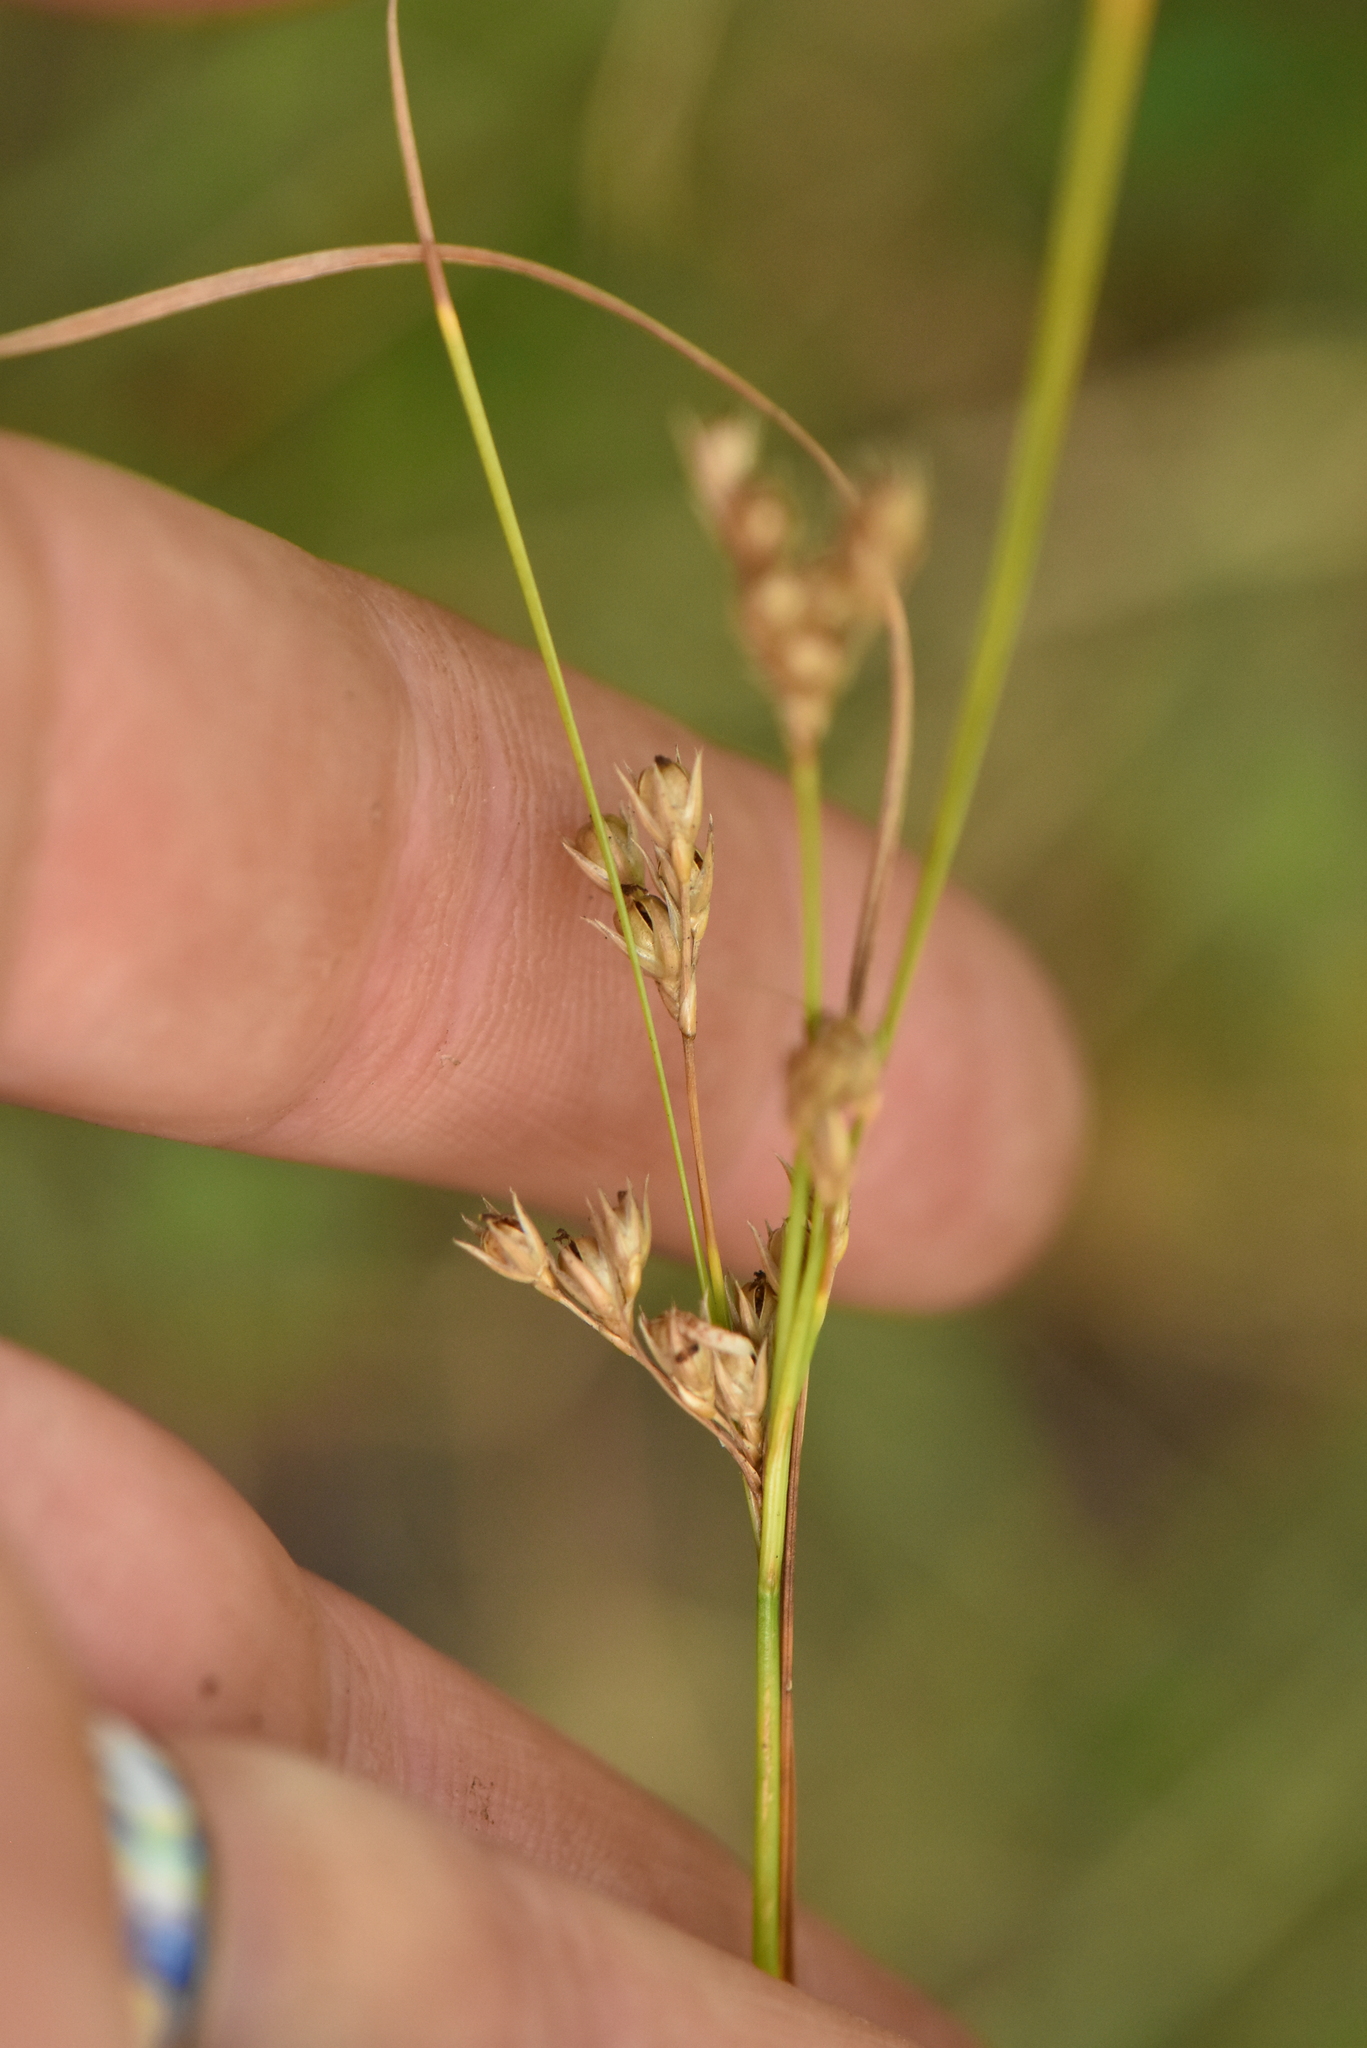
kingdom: Plantae
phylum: Tracheophyta
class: Liliopsida
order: Poales
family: Juncaceae
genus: Juncus
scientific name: Juncus tenuis
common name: Slender rush
